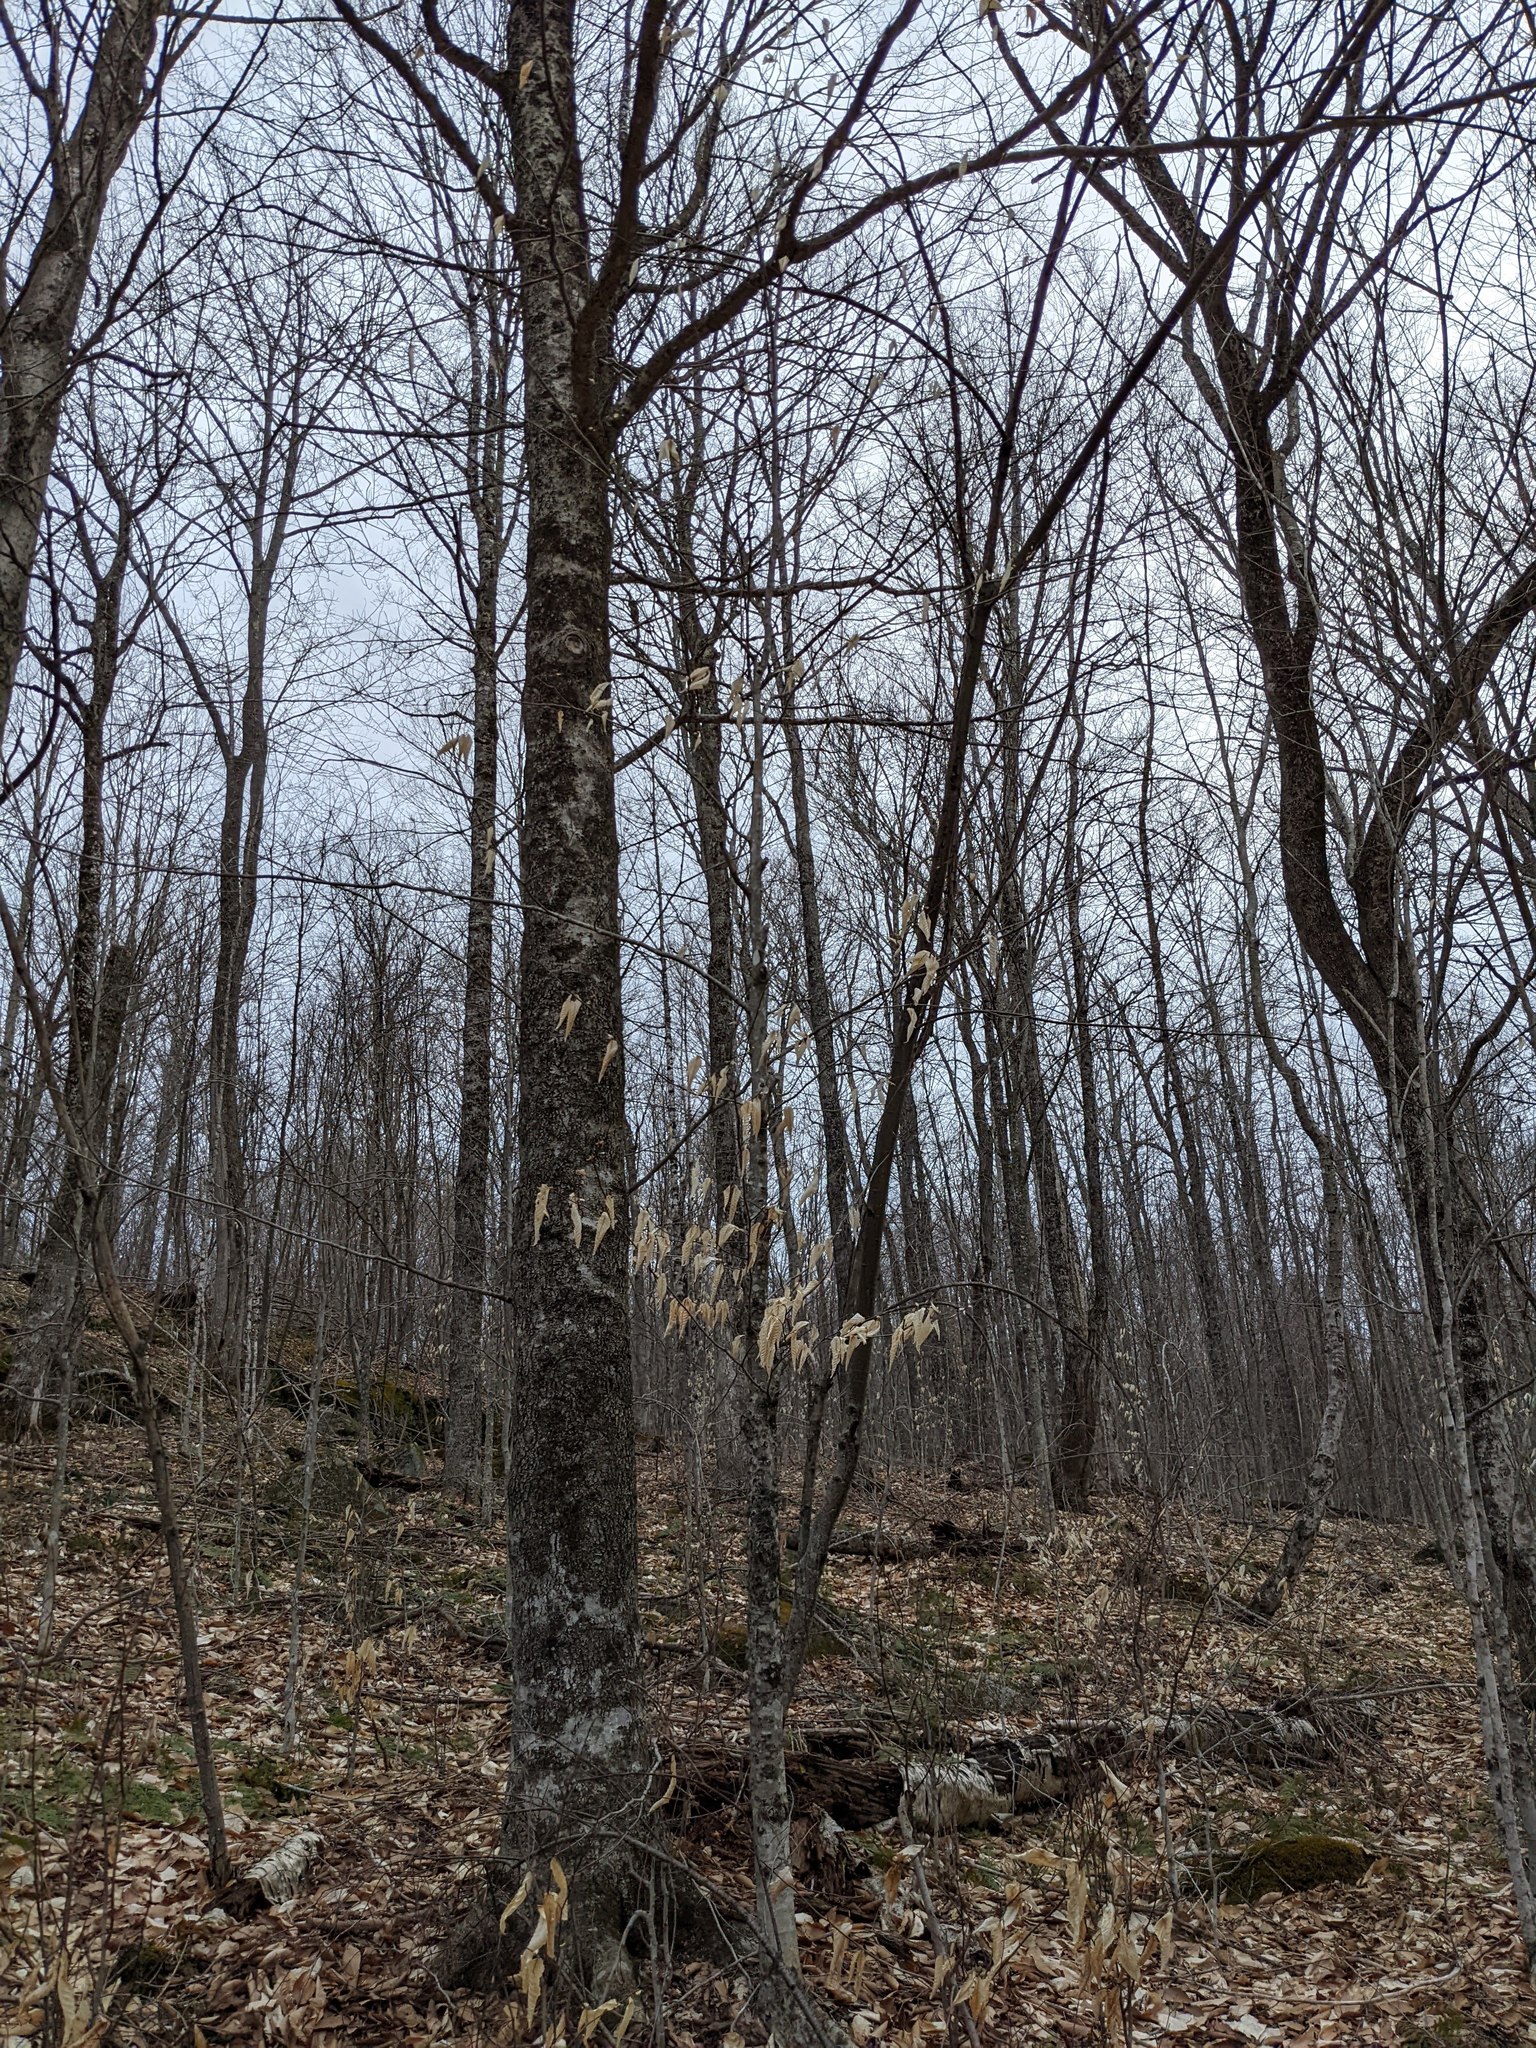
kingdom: Plantae
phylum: Tracheophyta
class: Magnoliopsida
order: Fagales
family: Fagaceae
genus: Fagus
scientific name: Fagus grandifolia
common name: American beech
